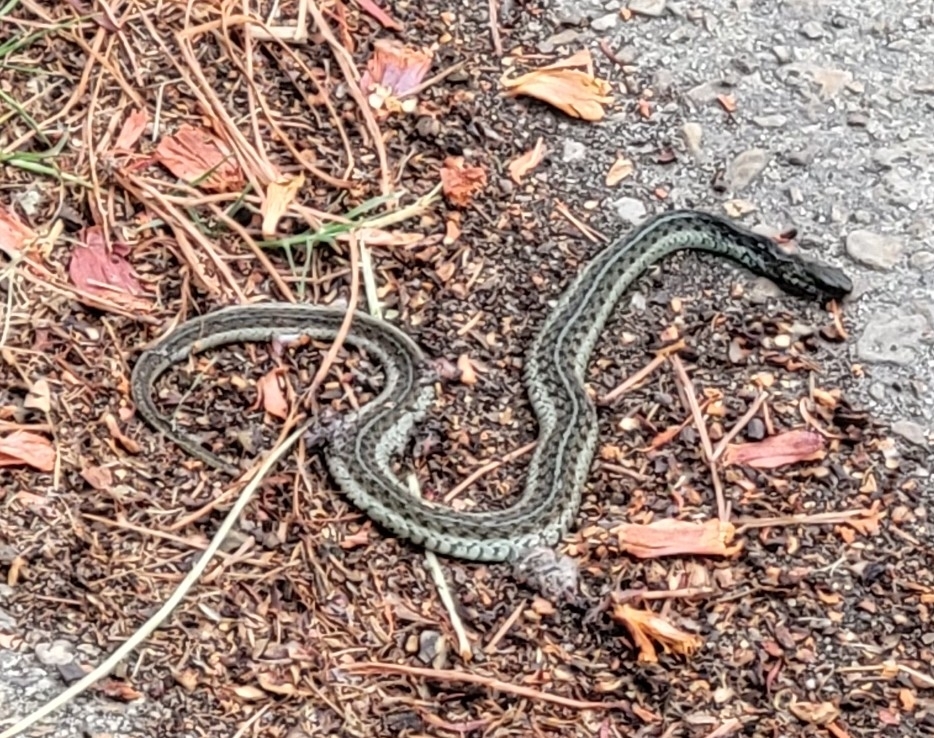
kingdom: Animalia
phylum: Chordata
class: Squamata
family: Colubridae
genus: Thamnophis
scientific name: Thamnophis sirtalis
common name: Common garter snake
